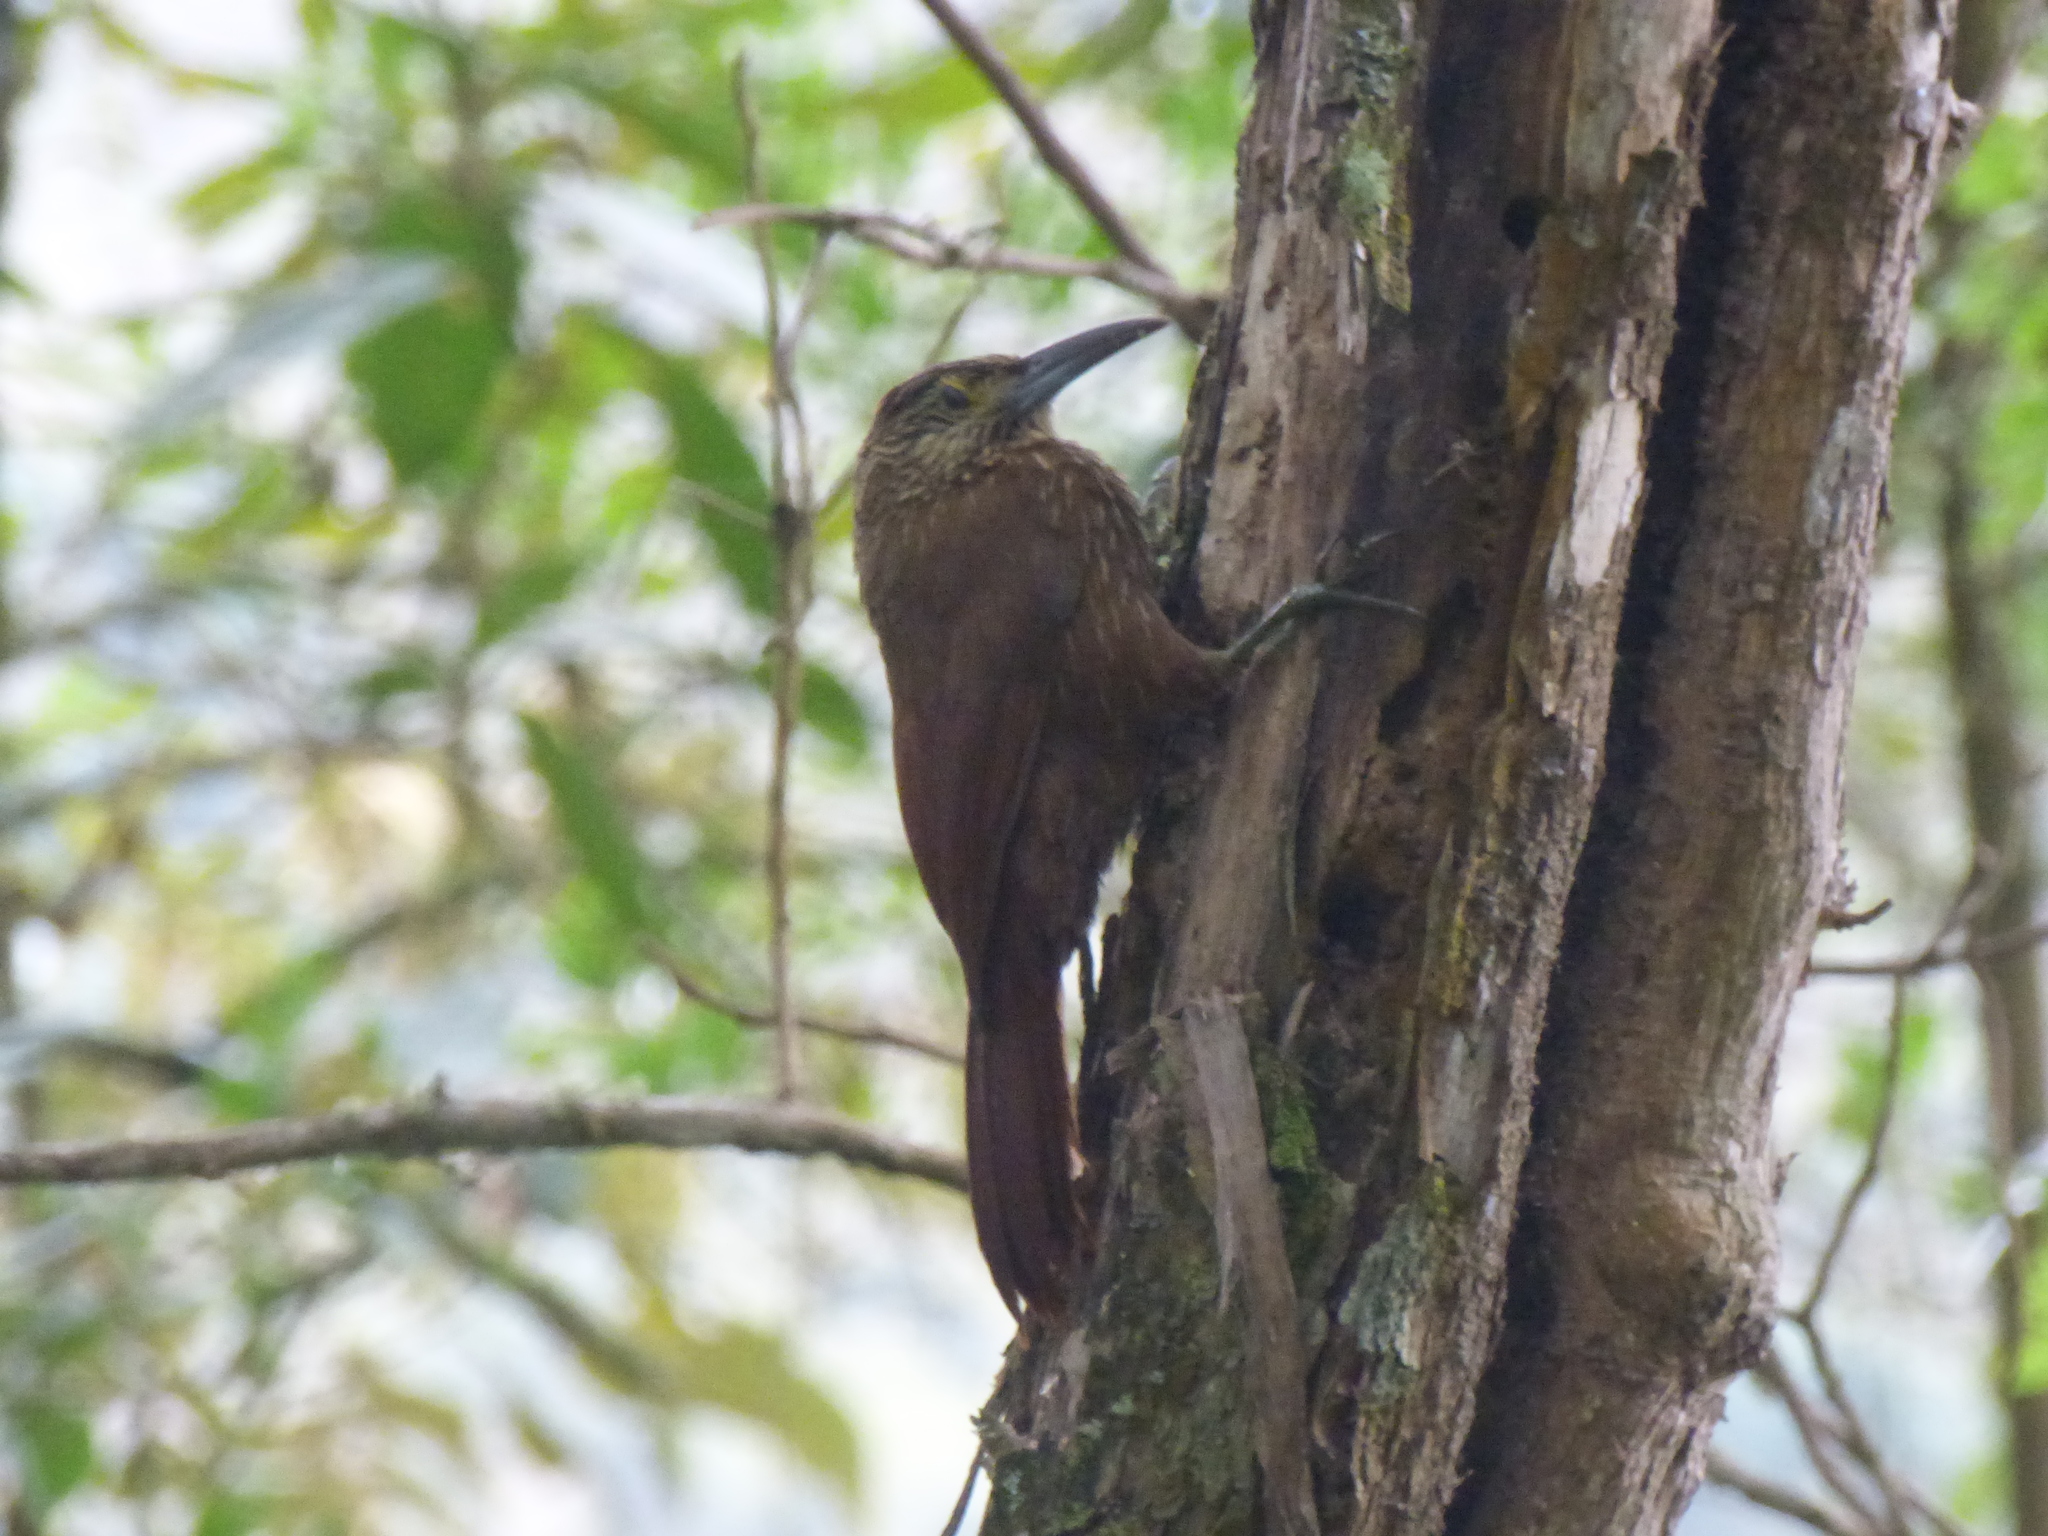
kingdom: Animalia
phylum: Chordata
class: Aves
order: Passeriformes
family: Furnariidae
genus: Xiphocolaptes
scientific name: Xiphocolaptes promeropirhynchus
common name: Strong-billed woodcreeper
